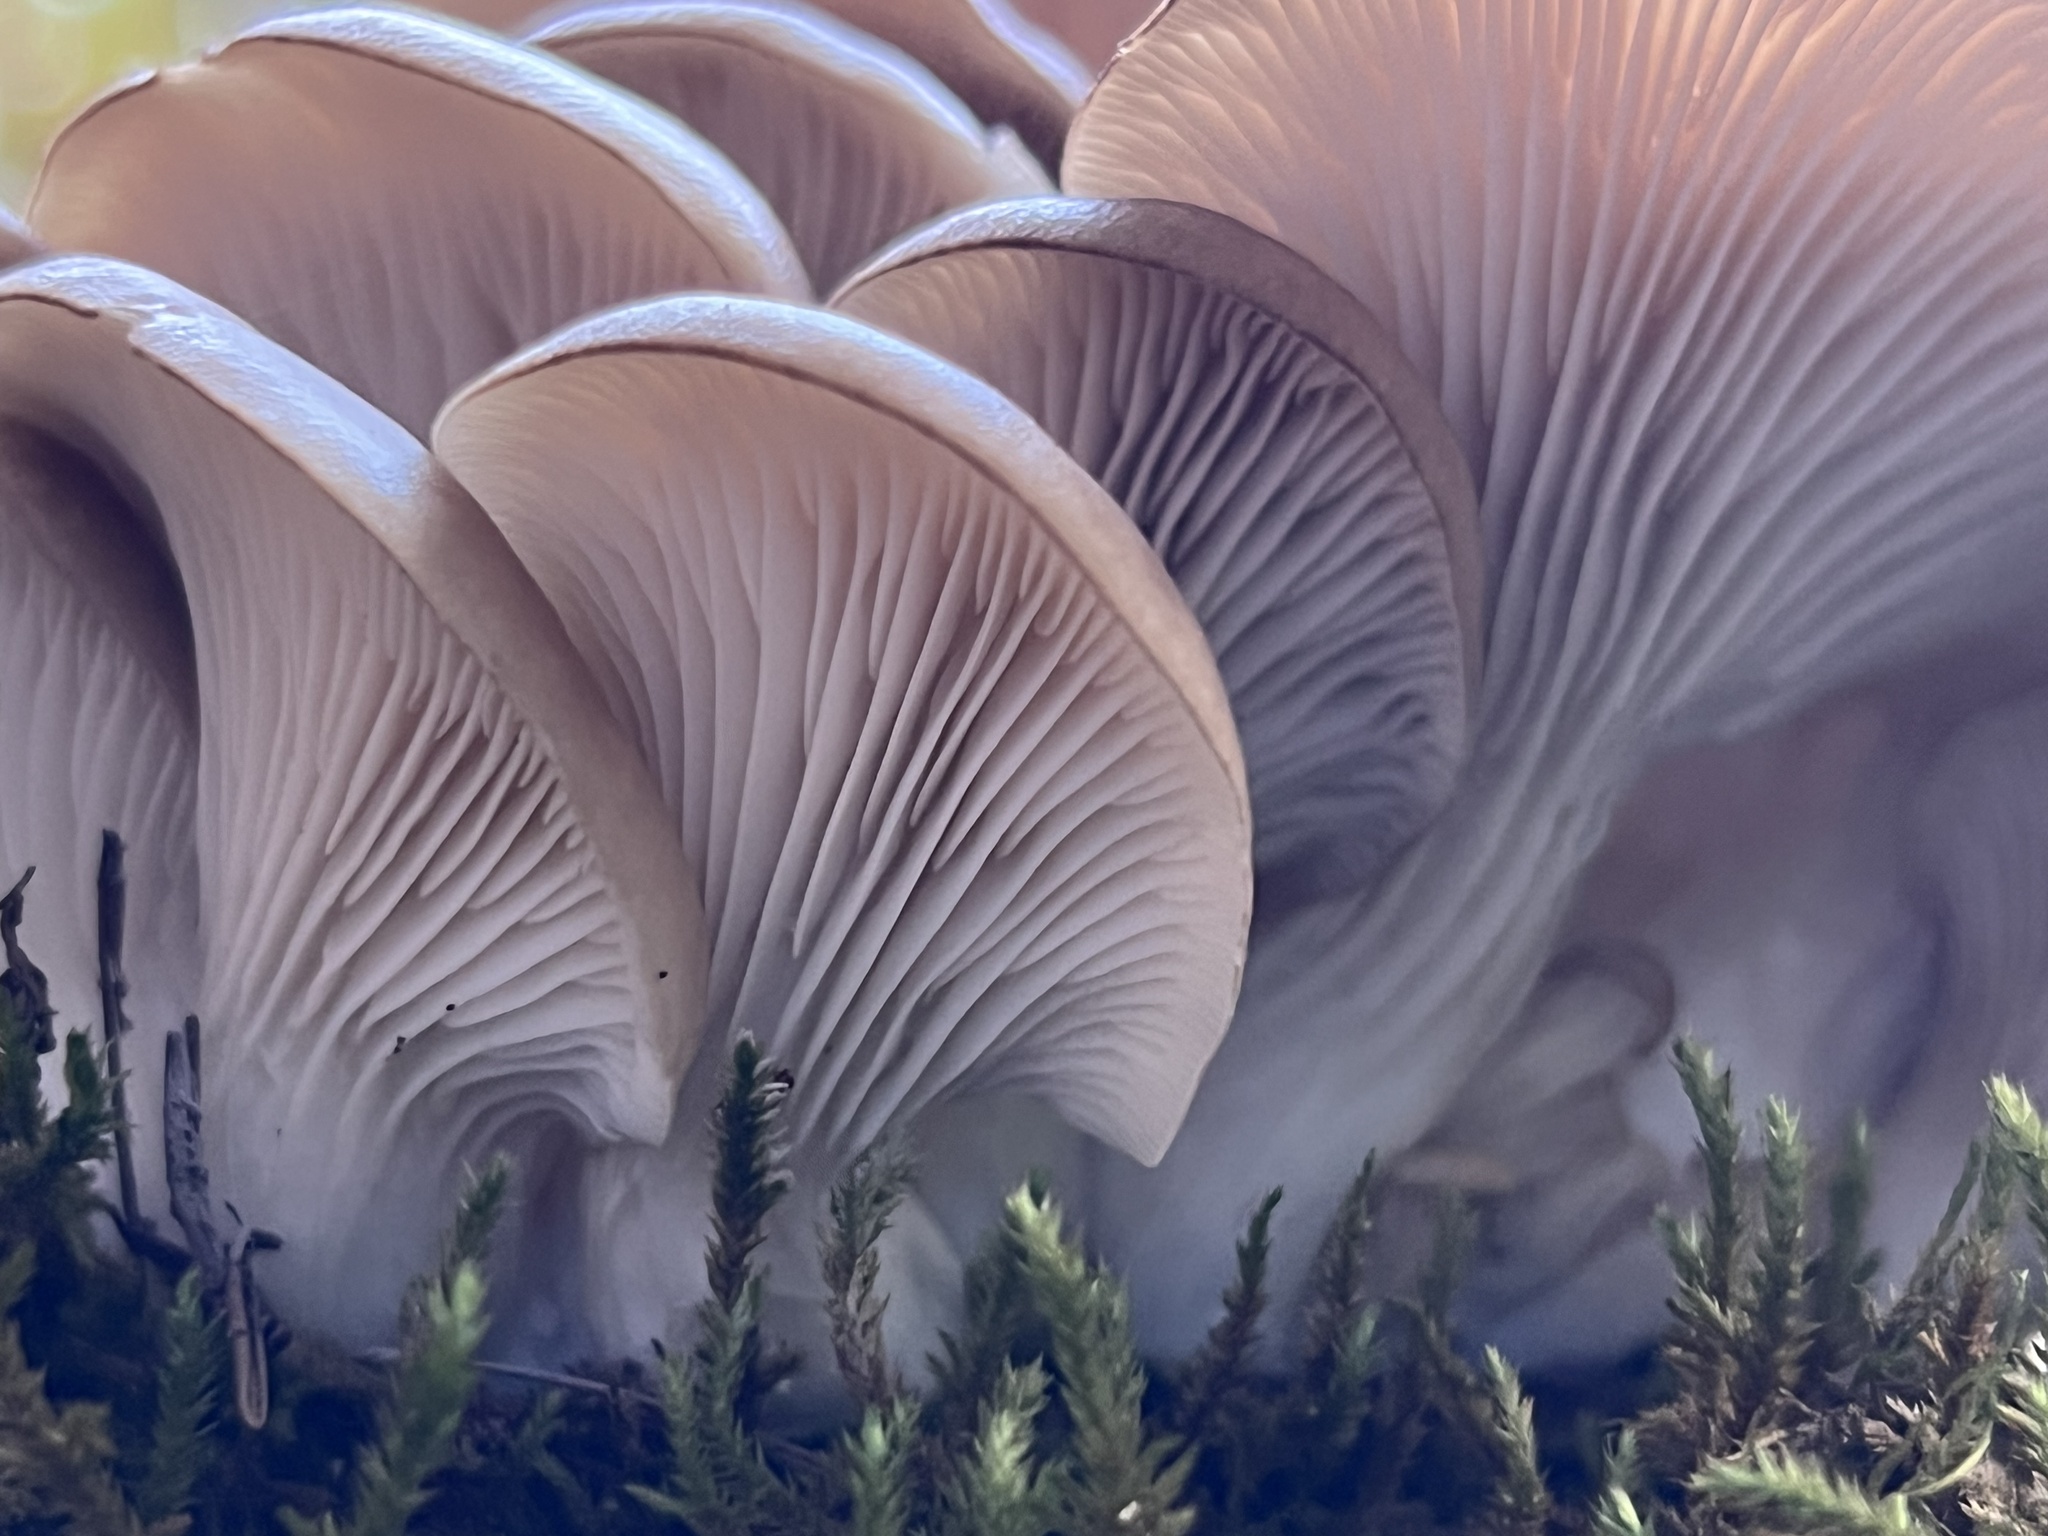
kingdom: Fungi
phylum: Basidiomycota
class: Agaricomycetes
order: Agaricales
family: Pleurotaceae
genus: Pleurotus
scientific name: Pleurotus ostreatus
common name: Oyster mushroom
